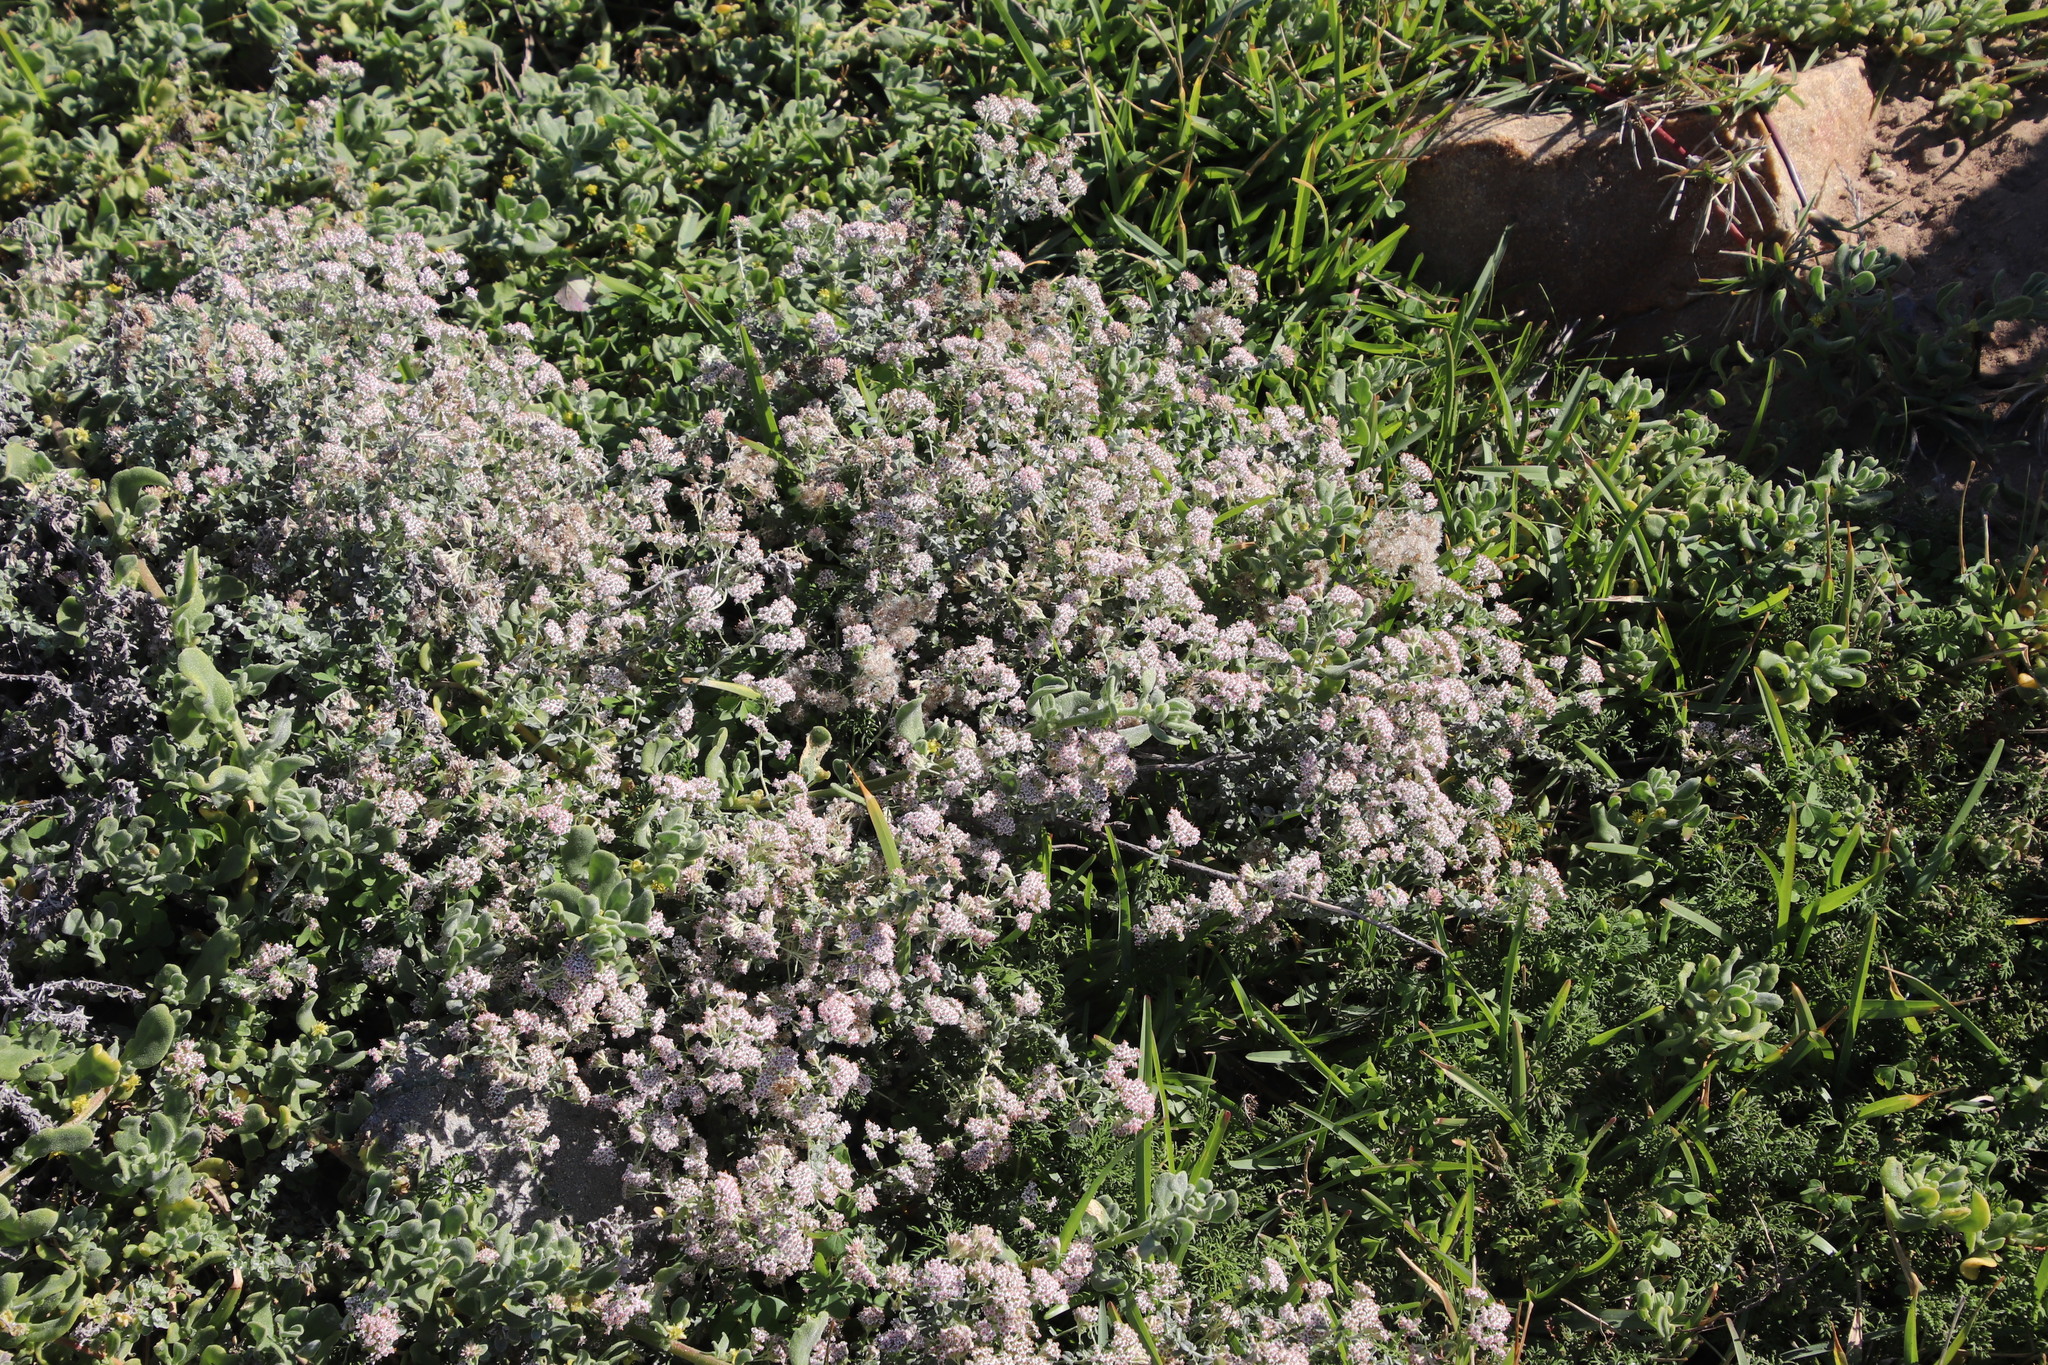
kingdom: Plantae
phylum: Tracheophyta
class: Magnoliopsida
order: Asterales
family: Asteraceae
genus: Plecostachys
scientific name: Plecostachys serpyllifolia
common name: Petite licorice
